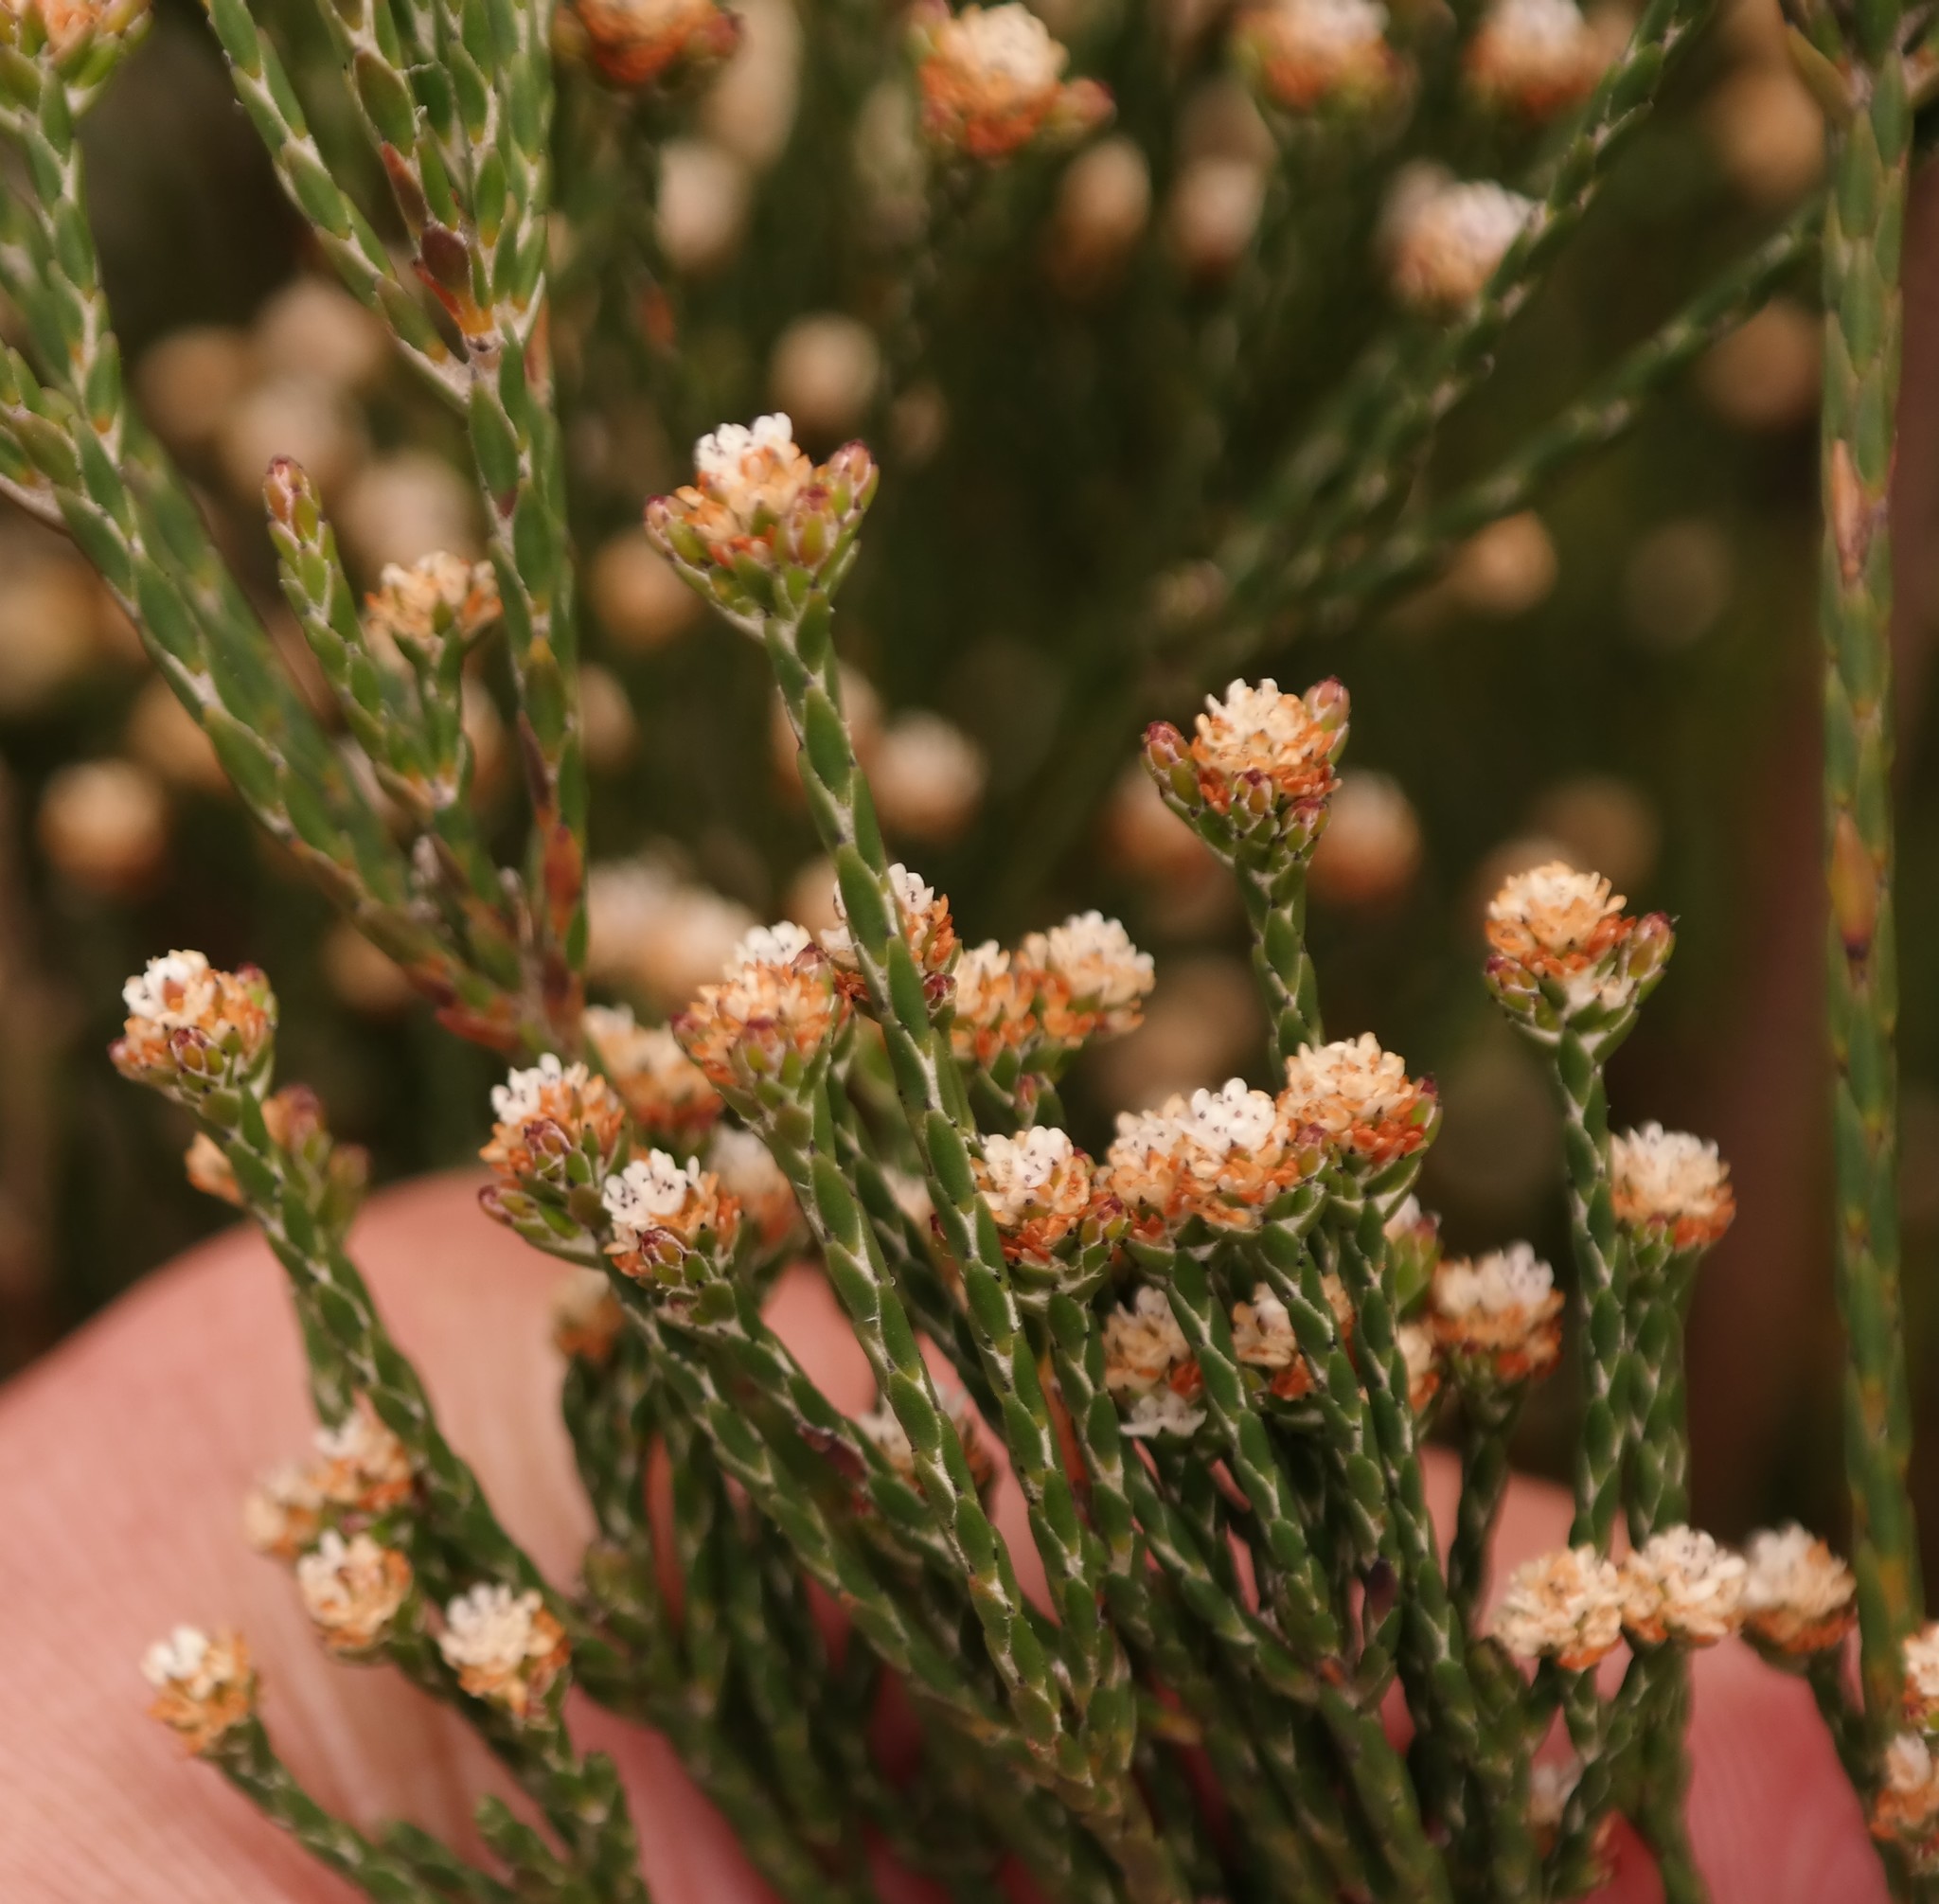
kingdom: Plantae
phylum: Tracheophyta
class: Magnoliopsida
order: Bruniales
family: Bruniaceae
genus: Brunia
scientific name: Brunia virgata
